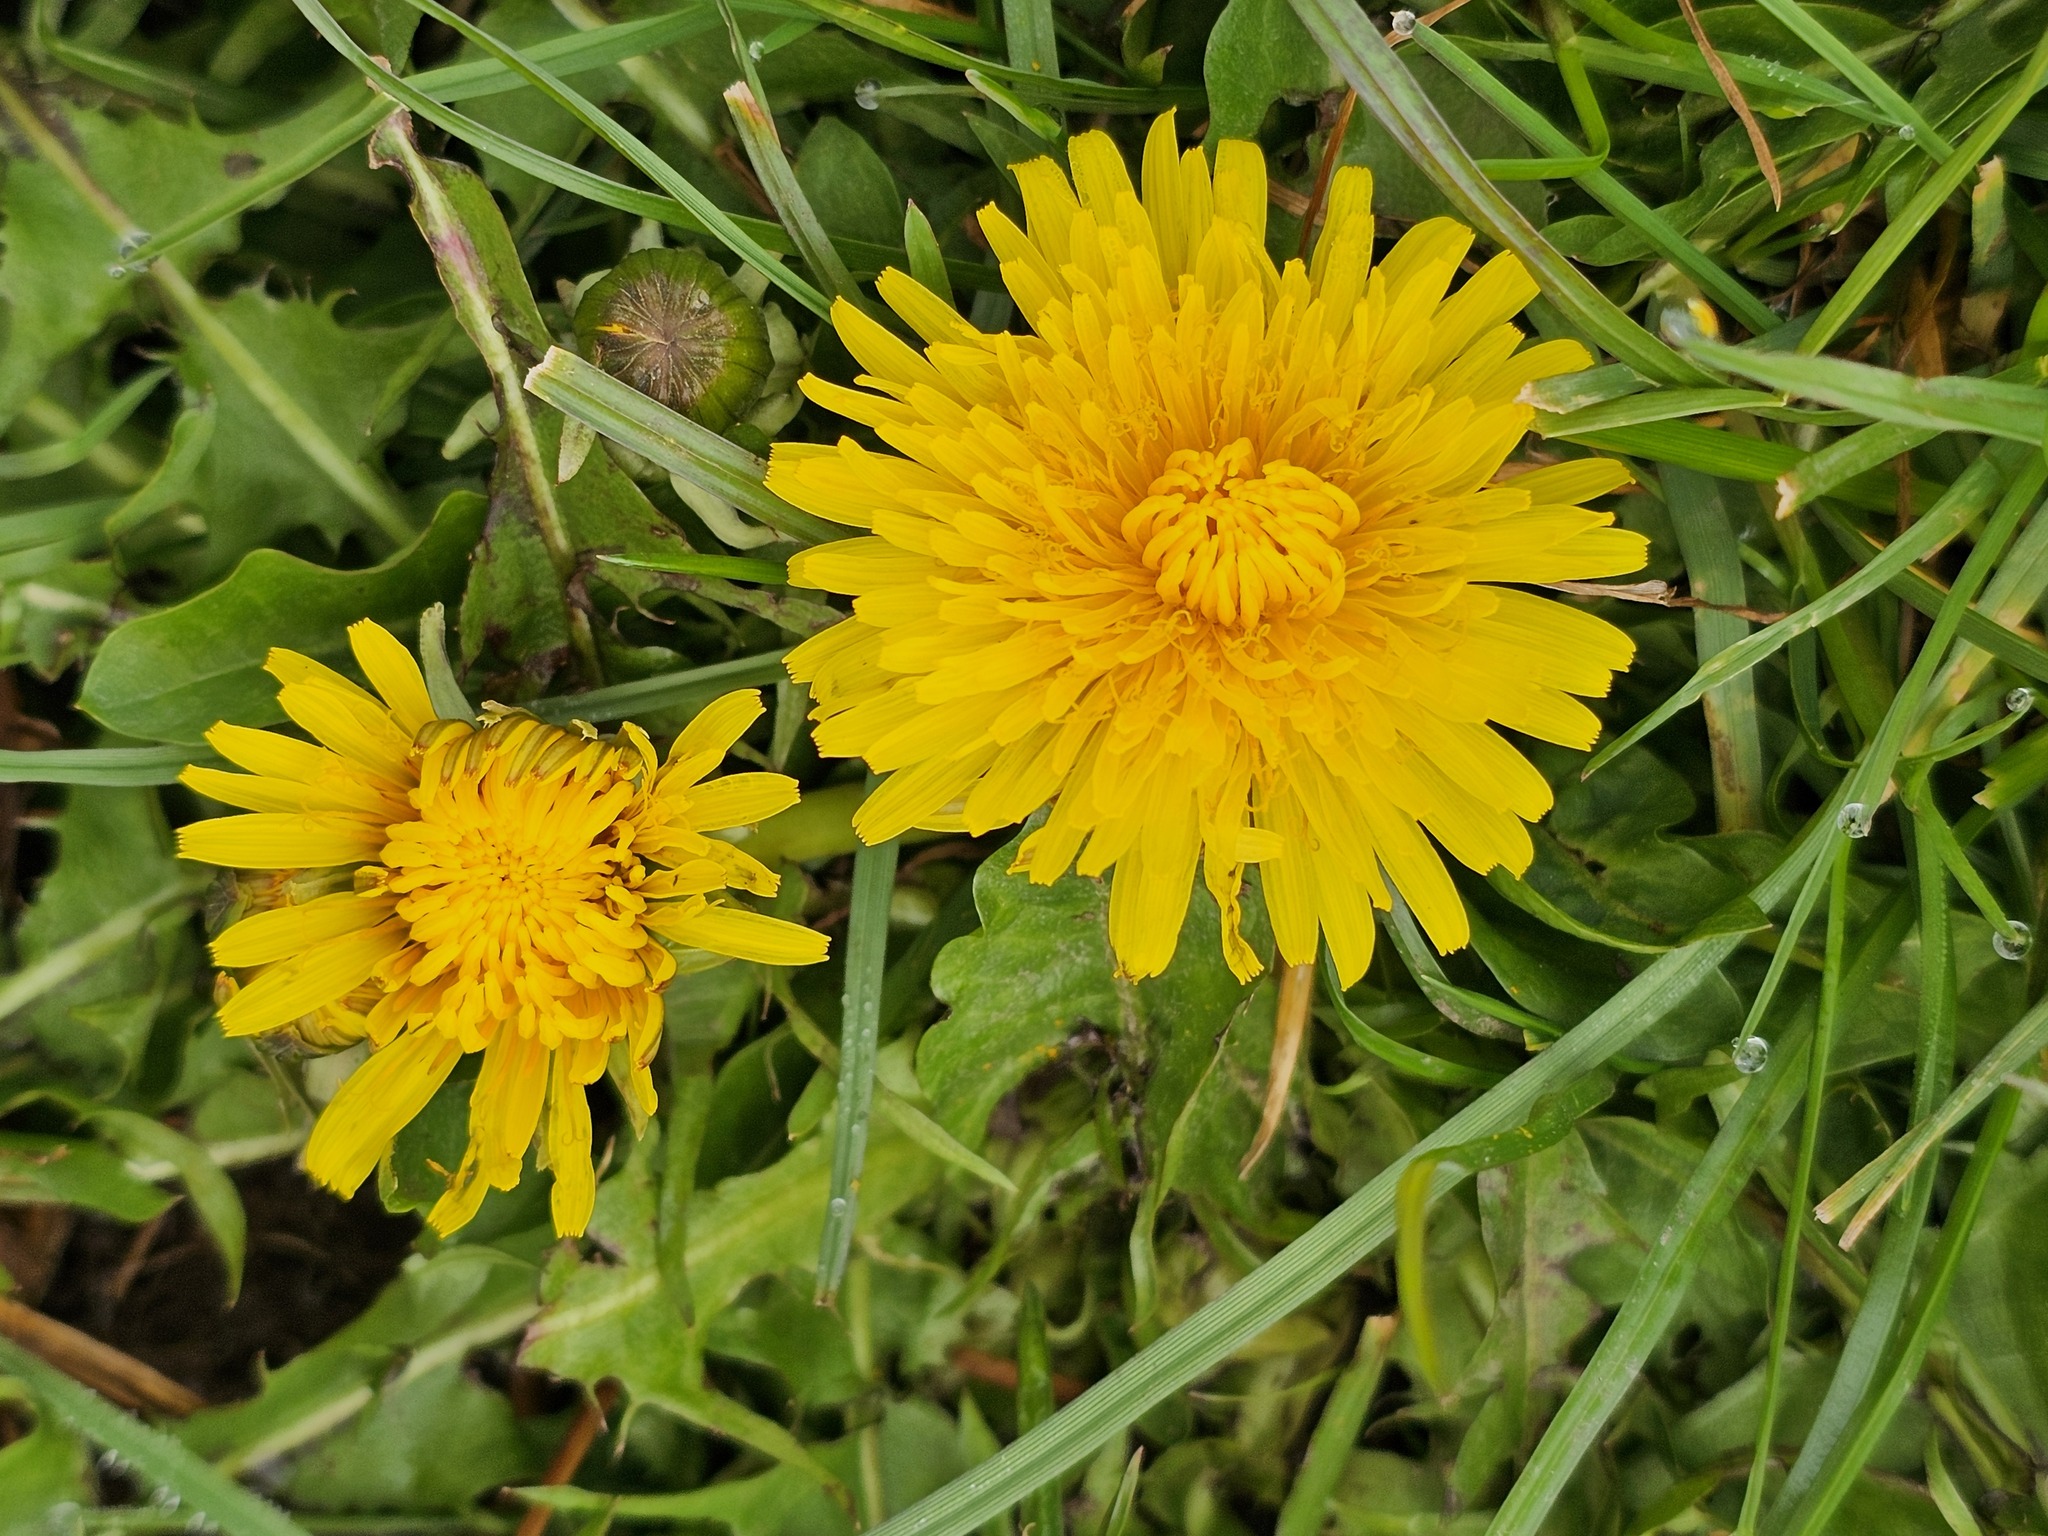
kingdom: Plantae
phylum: Tracheophyta
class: Magnoliopsida
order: Asterales
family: Asteraceae
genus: Taraxacum
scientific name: Taraxacum officinale
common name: Common dandelion
